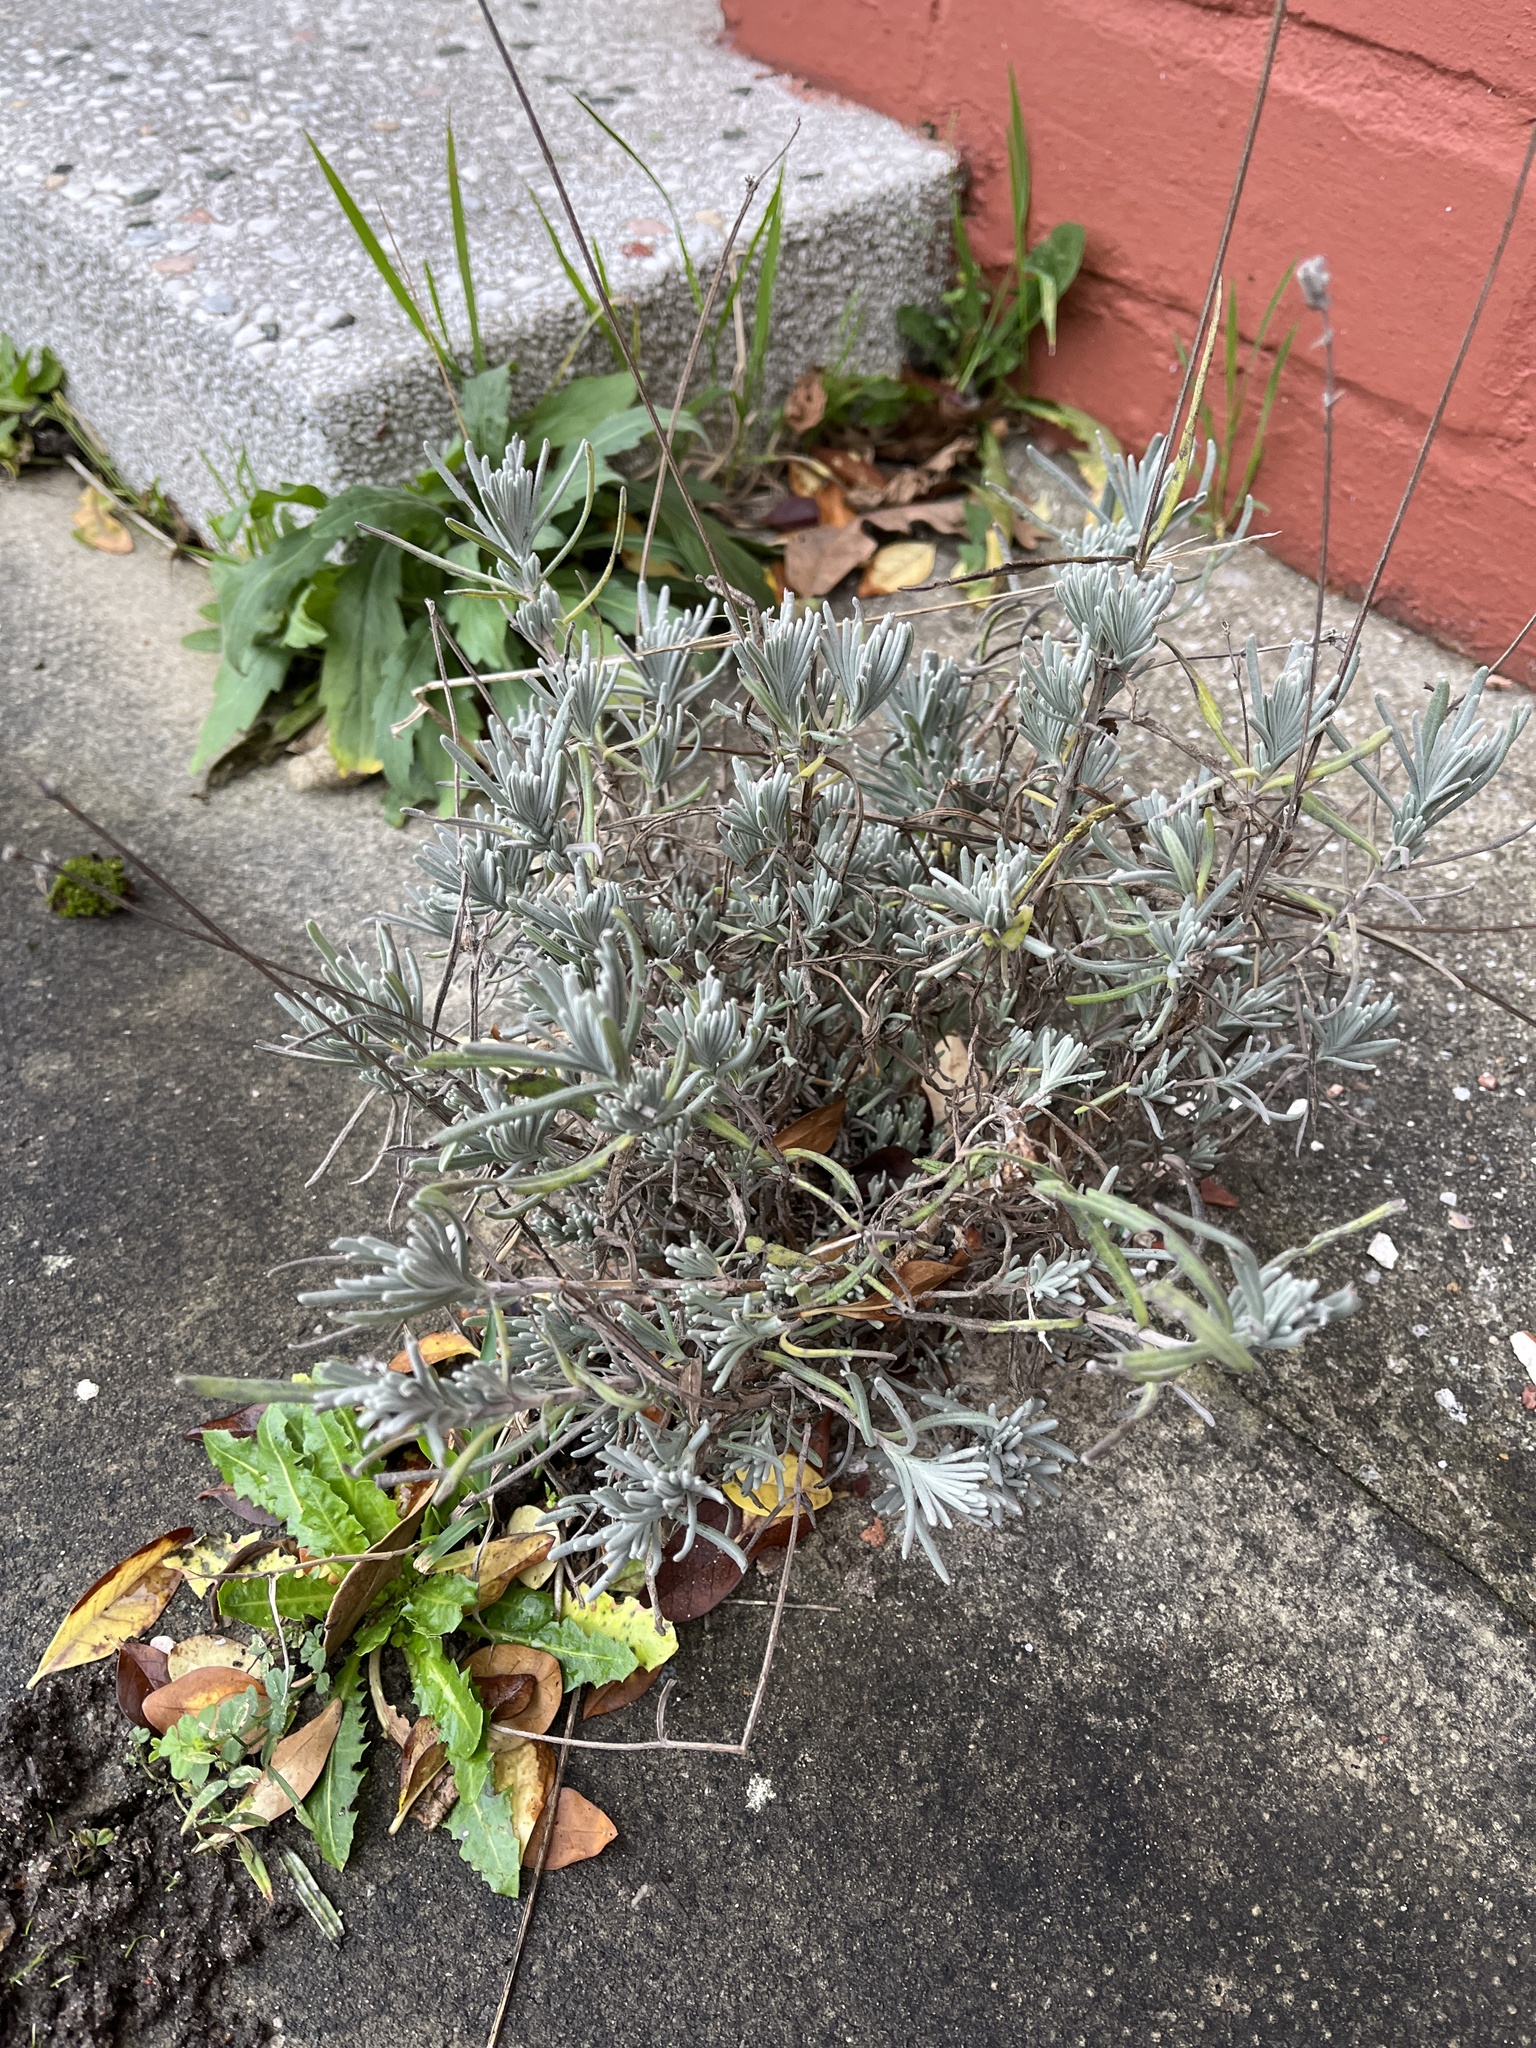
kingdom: Plantae
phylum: Tracheophyta
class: Magnoliopsida
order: Lamiales
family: Lamiaceae
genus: Lavandula
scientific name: Lavandula angustifolia
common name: Garden lavender
